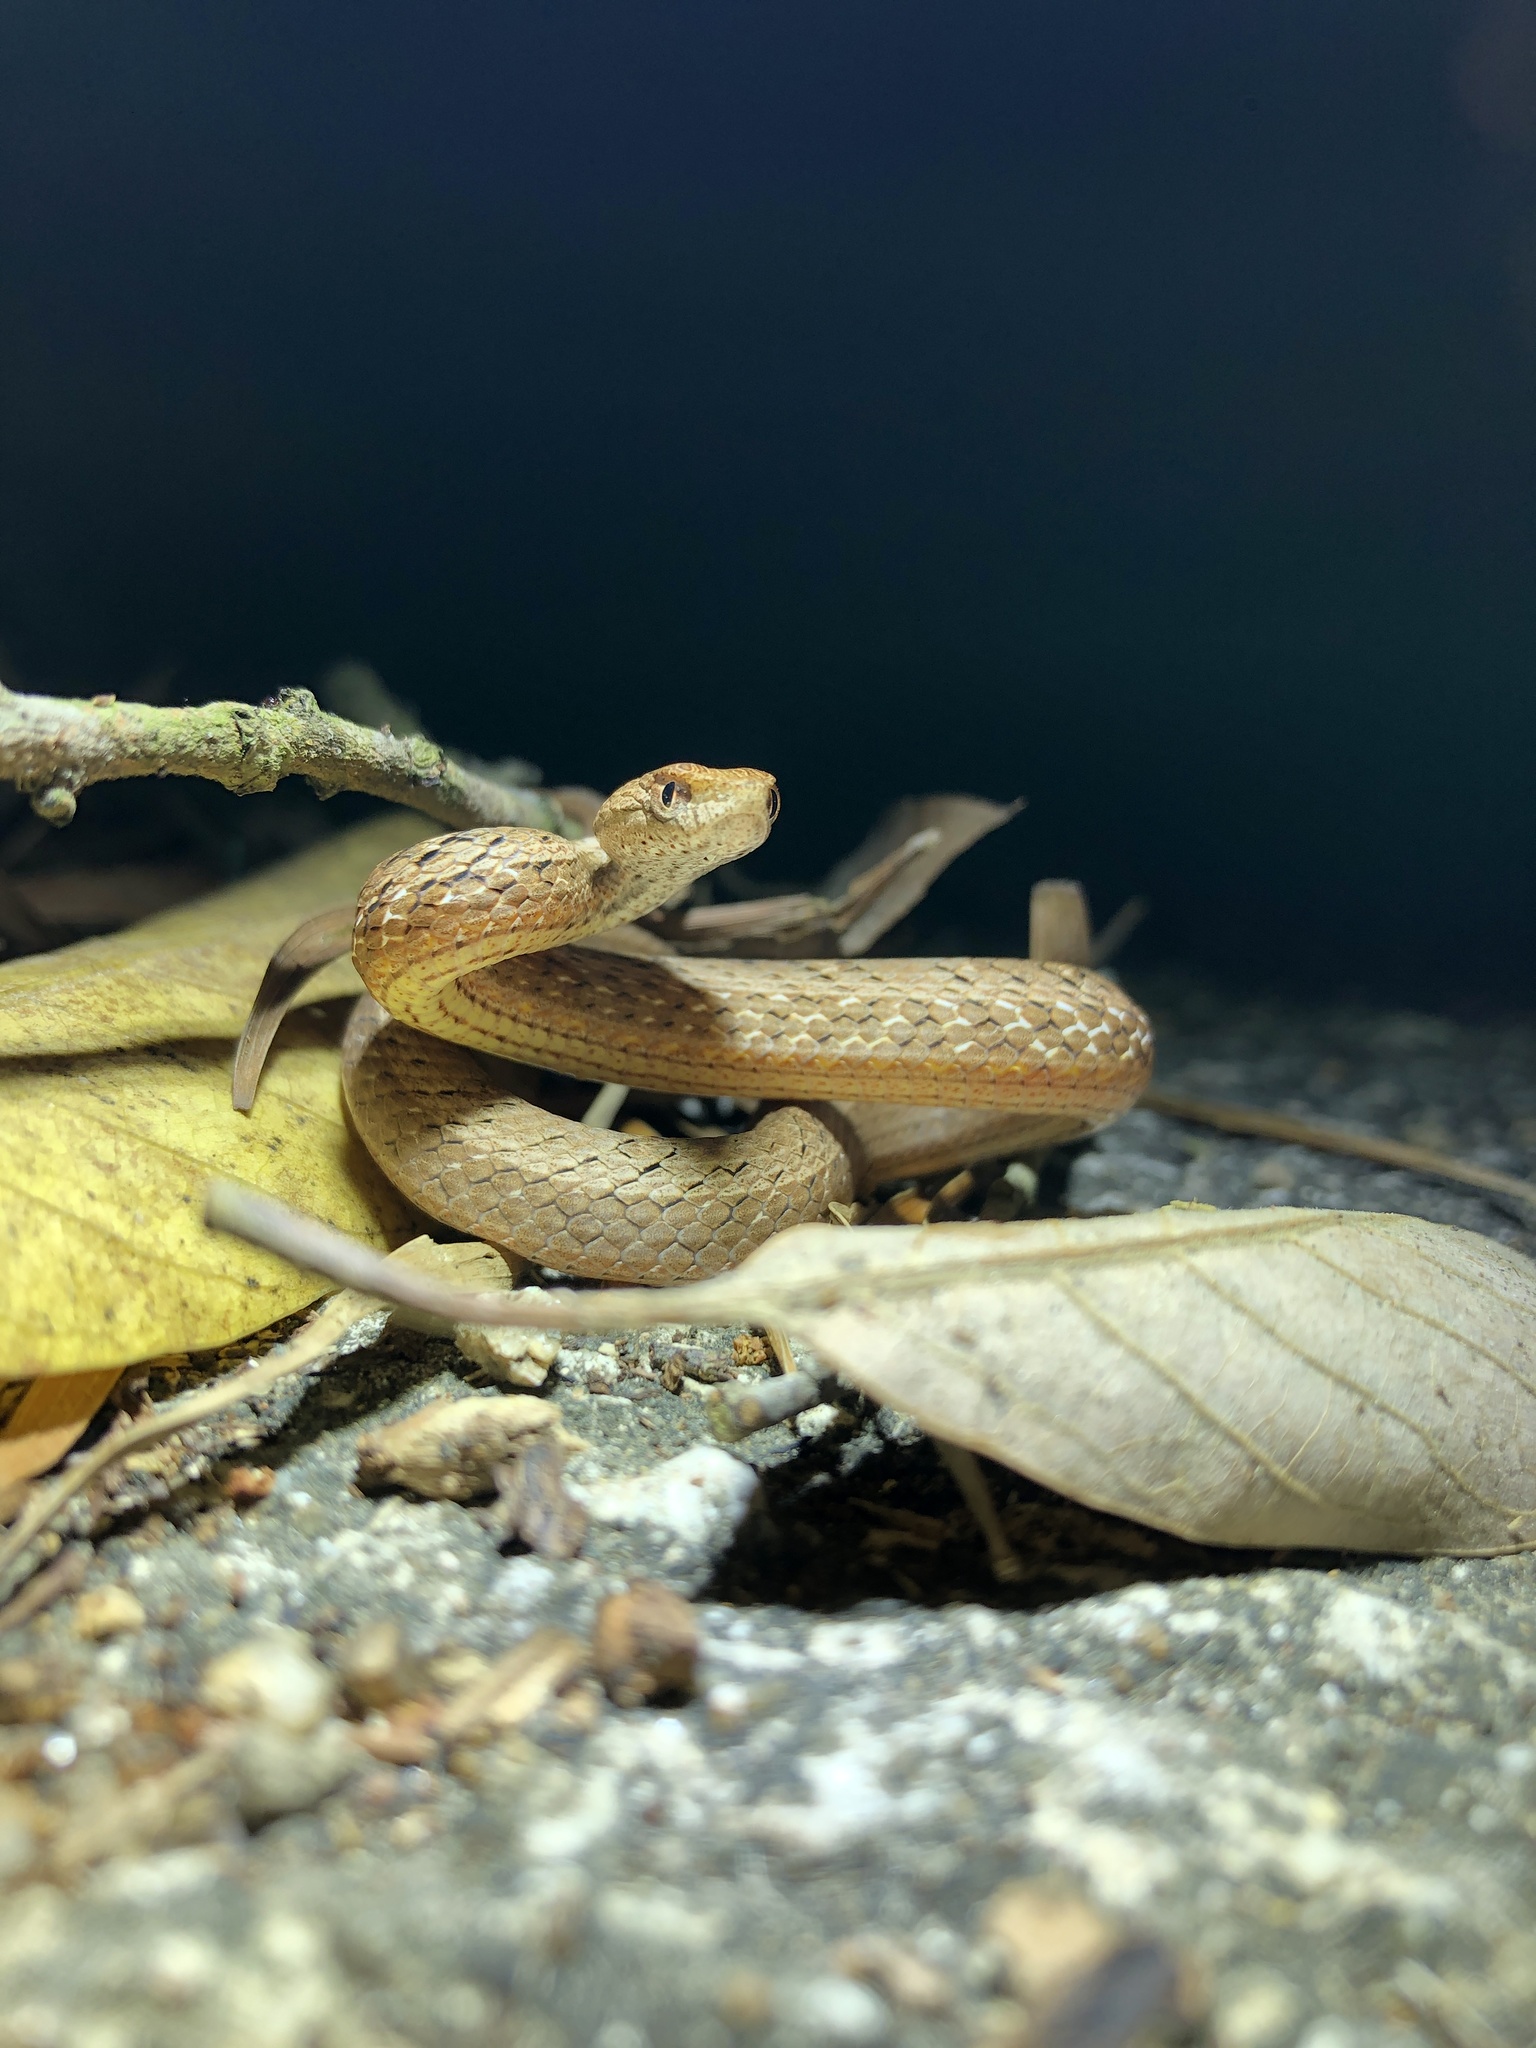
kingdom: Animalia
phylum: Chordata
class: Squamata
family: Pseudaspididae
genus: Psammodynastes
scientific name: Psammodynastes pulverulentus
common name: Common mock viper
